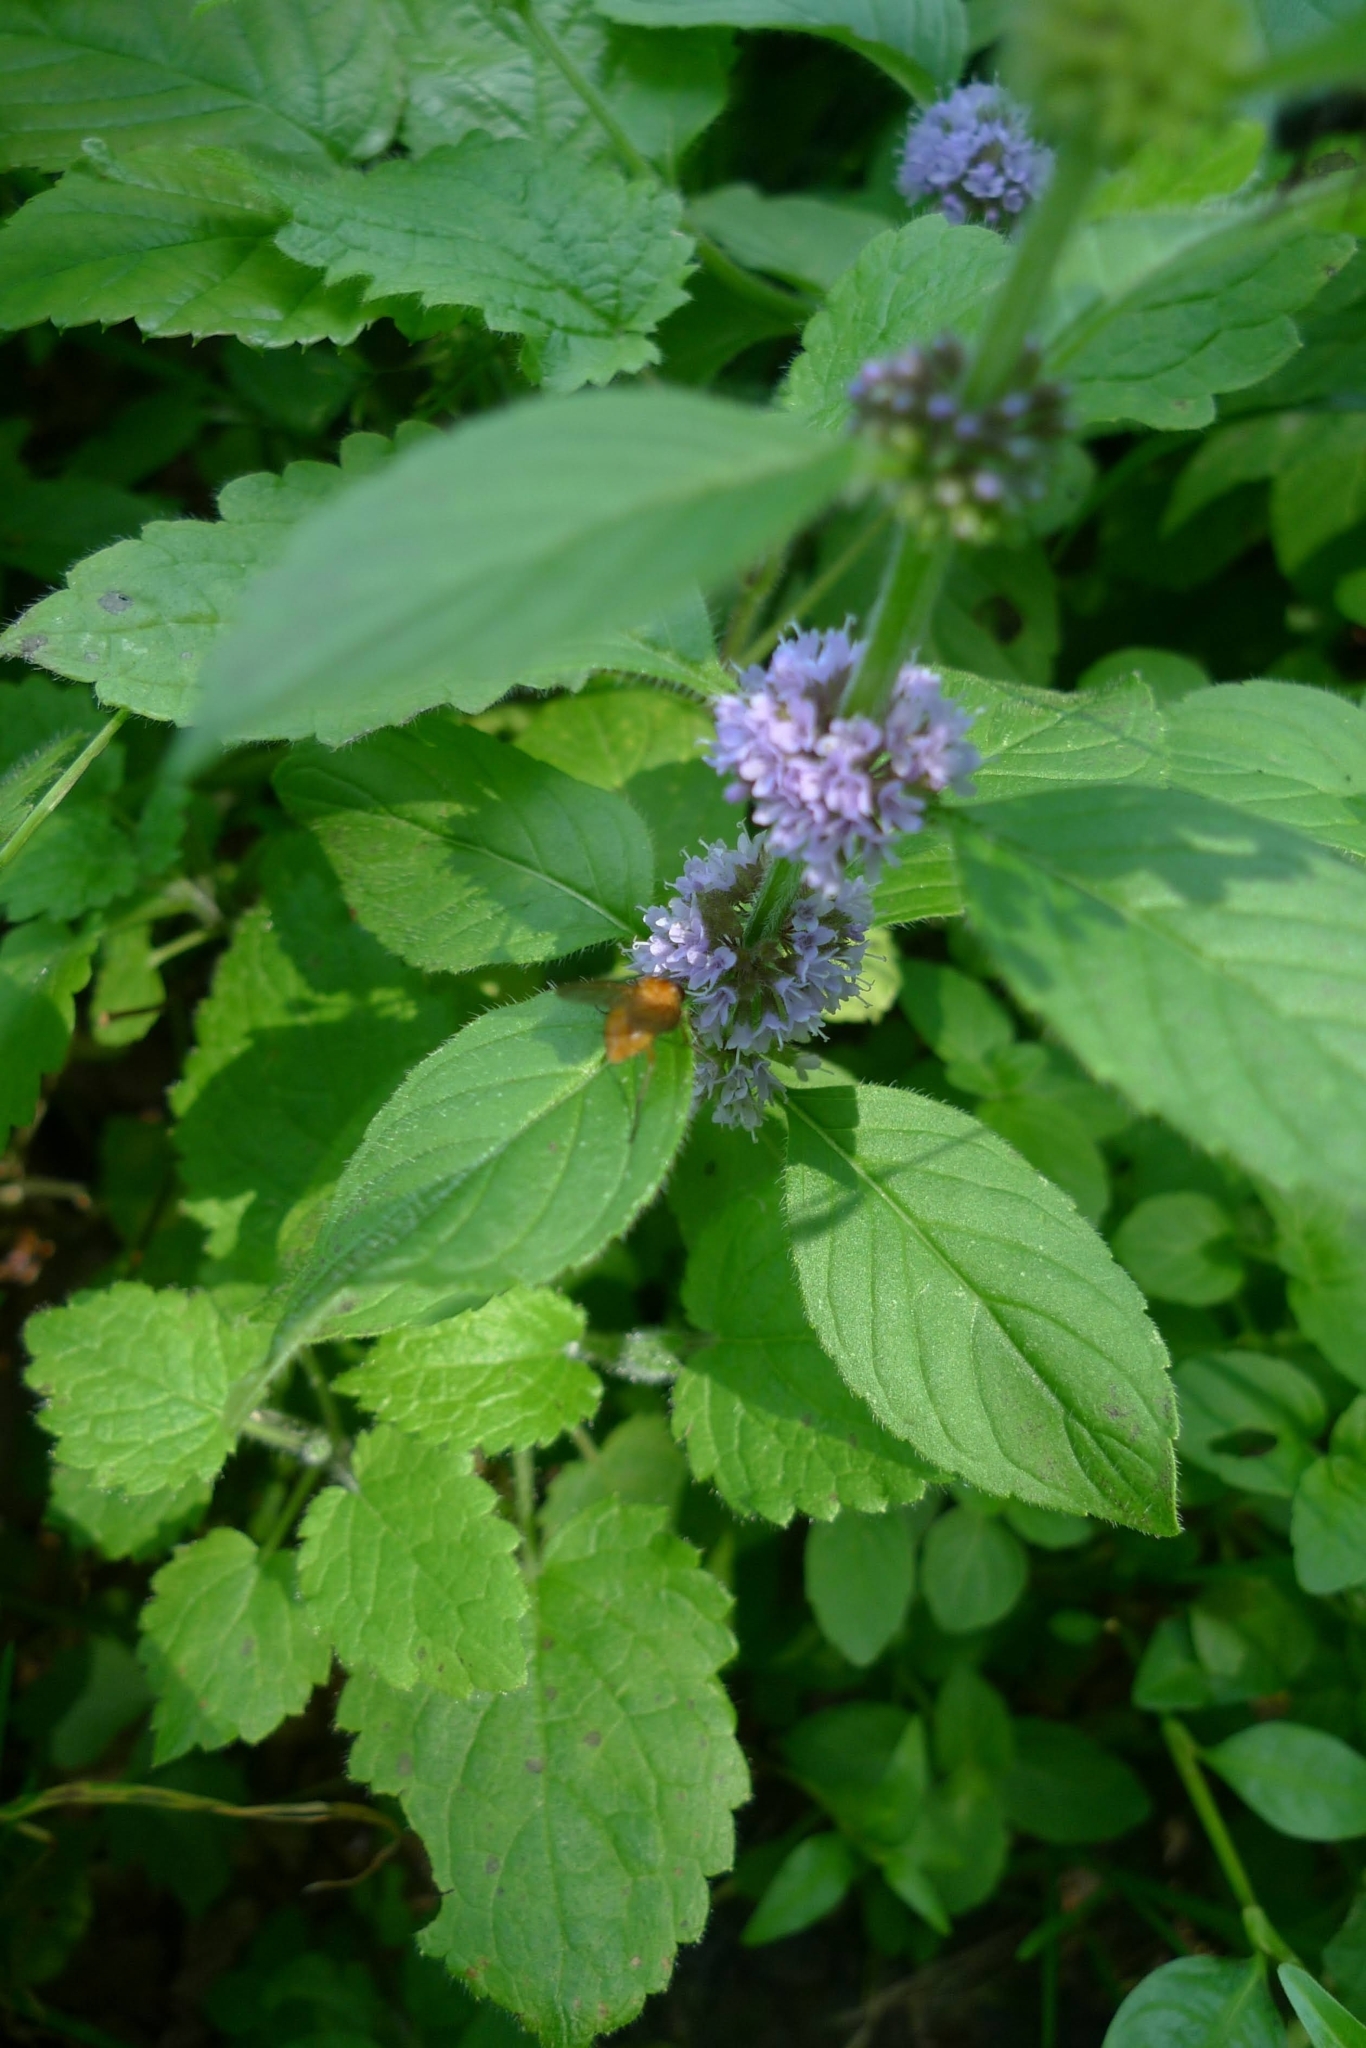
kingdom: Plantae
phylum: Tracheophyta
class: Magnoliopsida
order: Lamiales
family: Lamiaceae
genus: Mentha
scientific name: Mentha arvensis
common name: Corn mint
